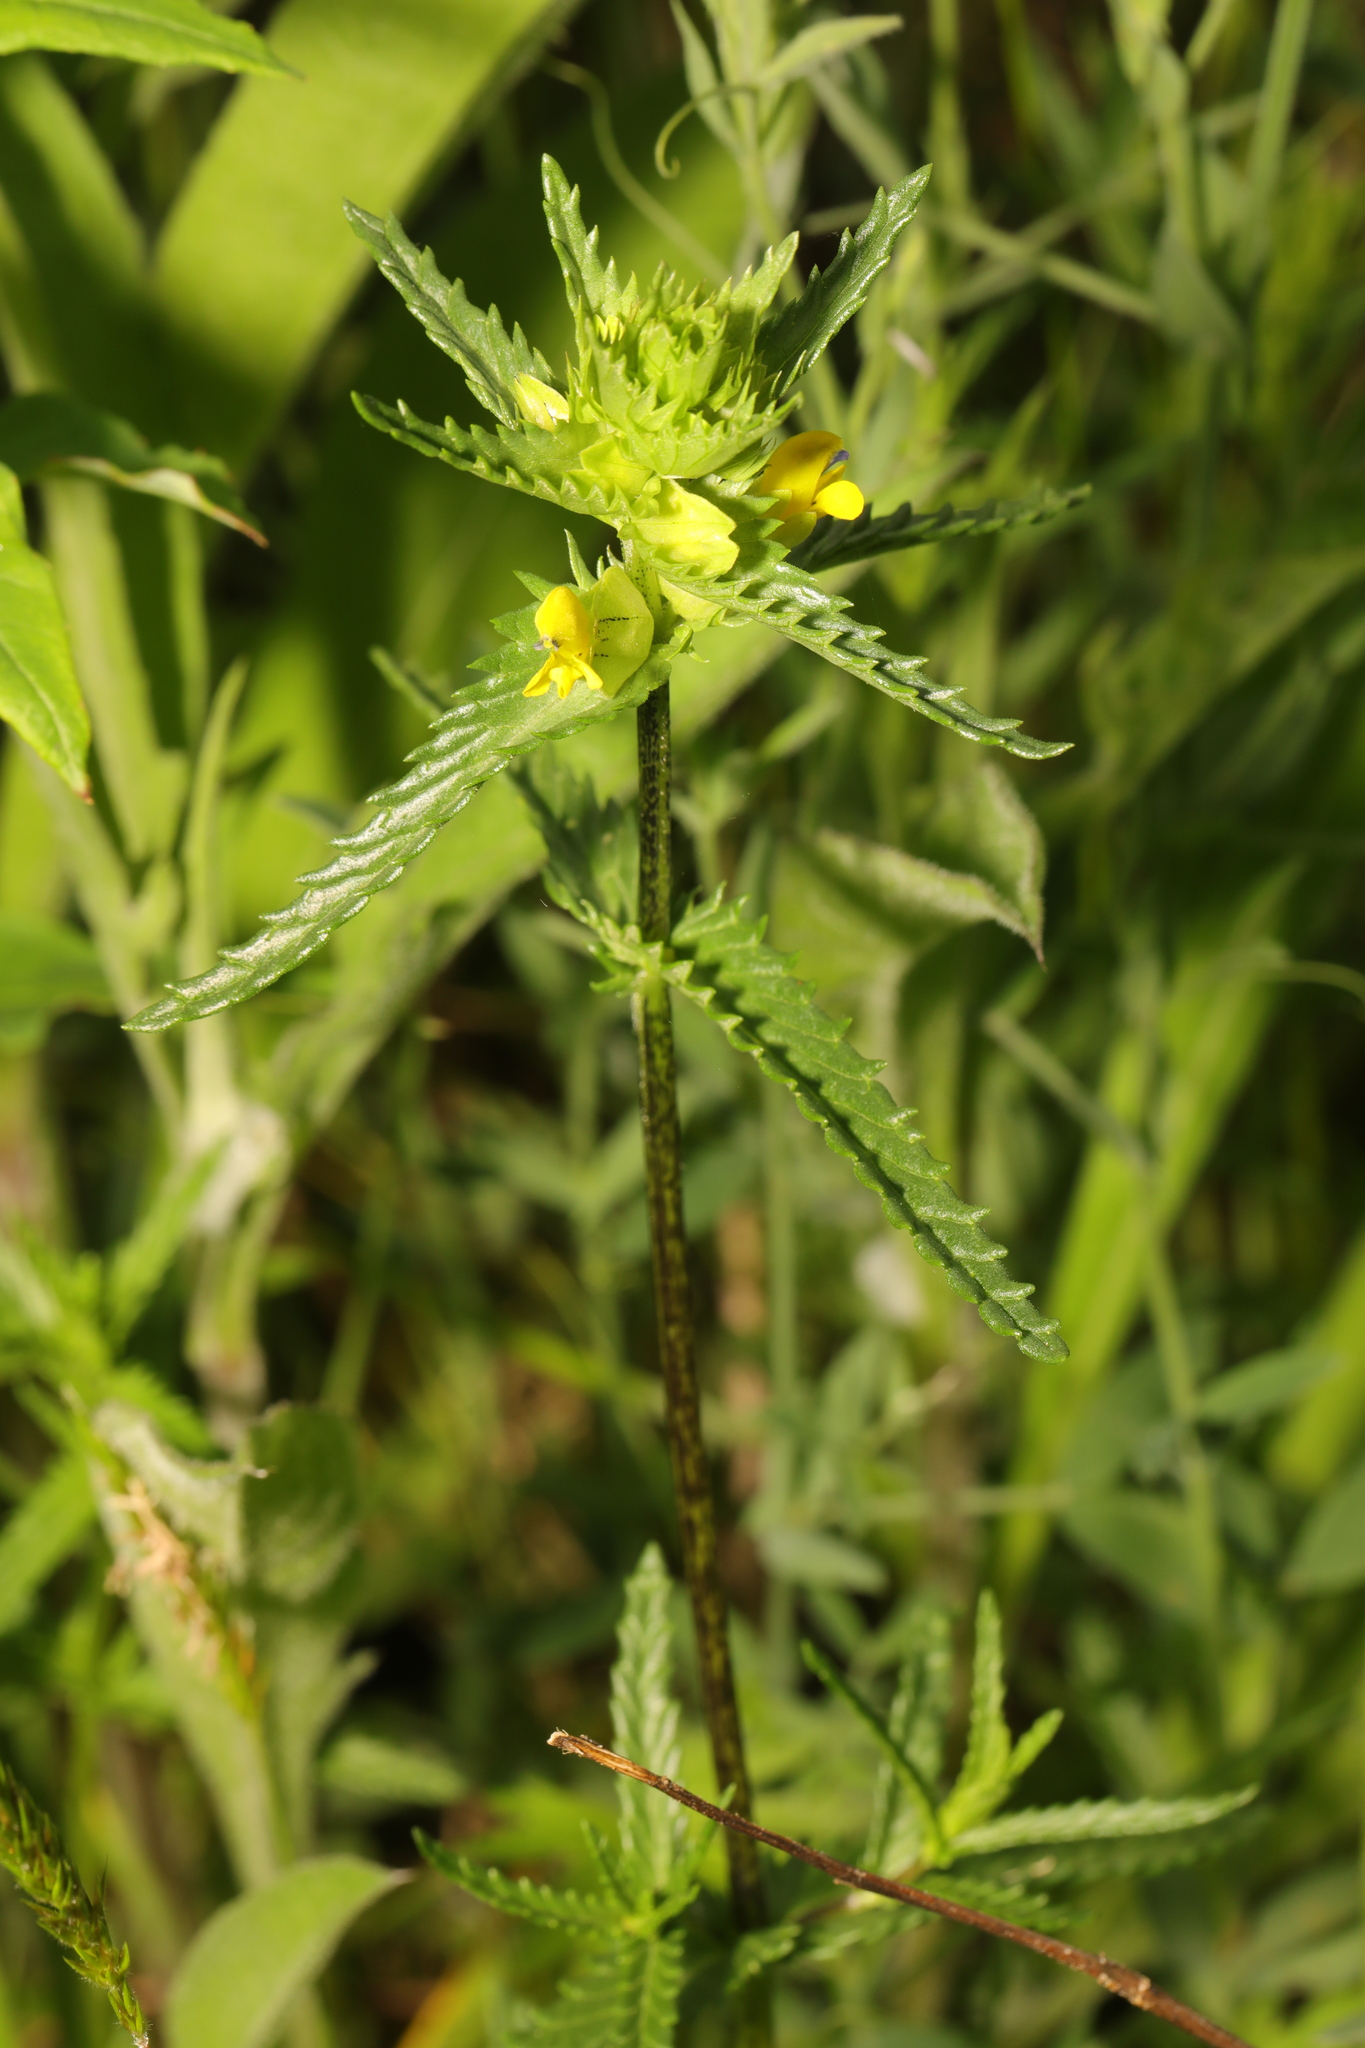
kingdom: Plantae
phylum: Tracheophyta
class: Magnoliopsida
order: Lamiales
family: Orobanchaceae
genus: Rhinanthus
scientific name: Rhinanthus minor
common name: Yellow-rattle
